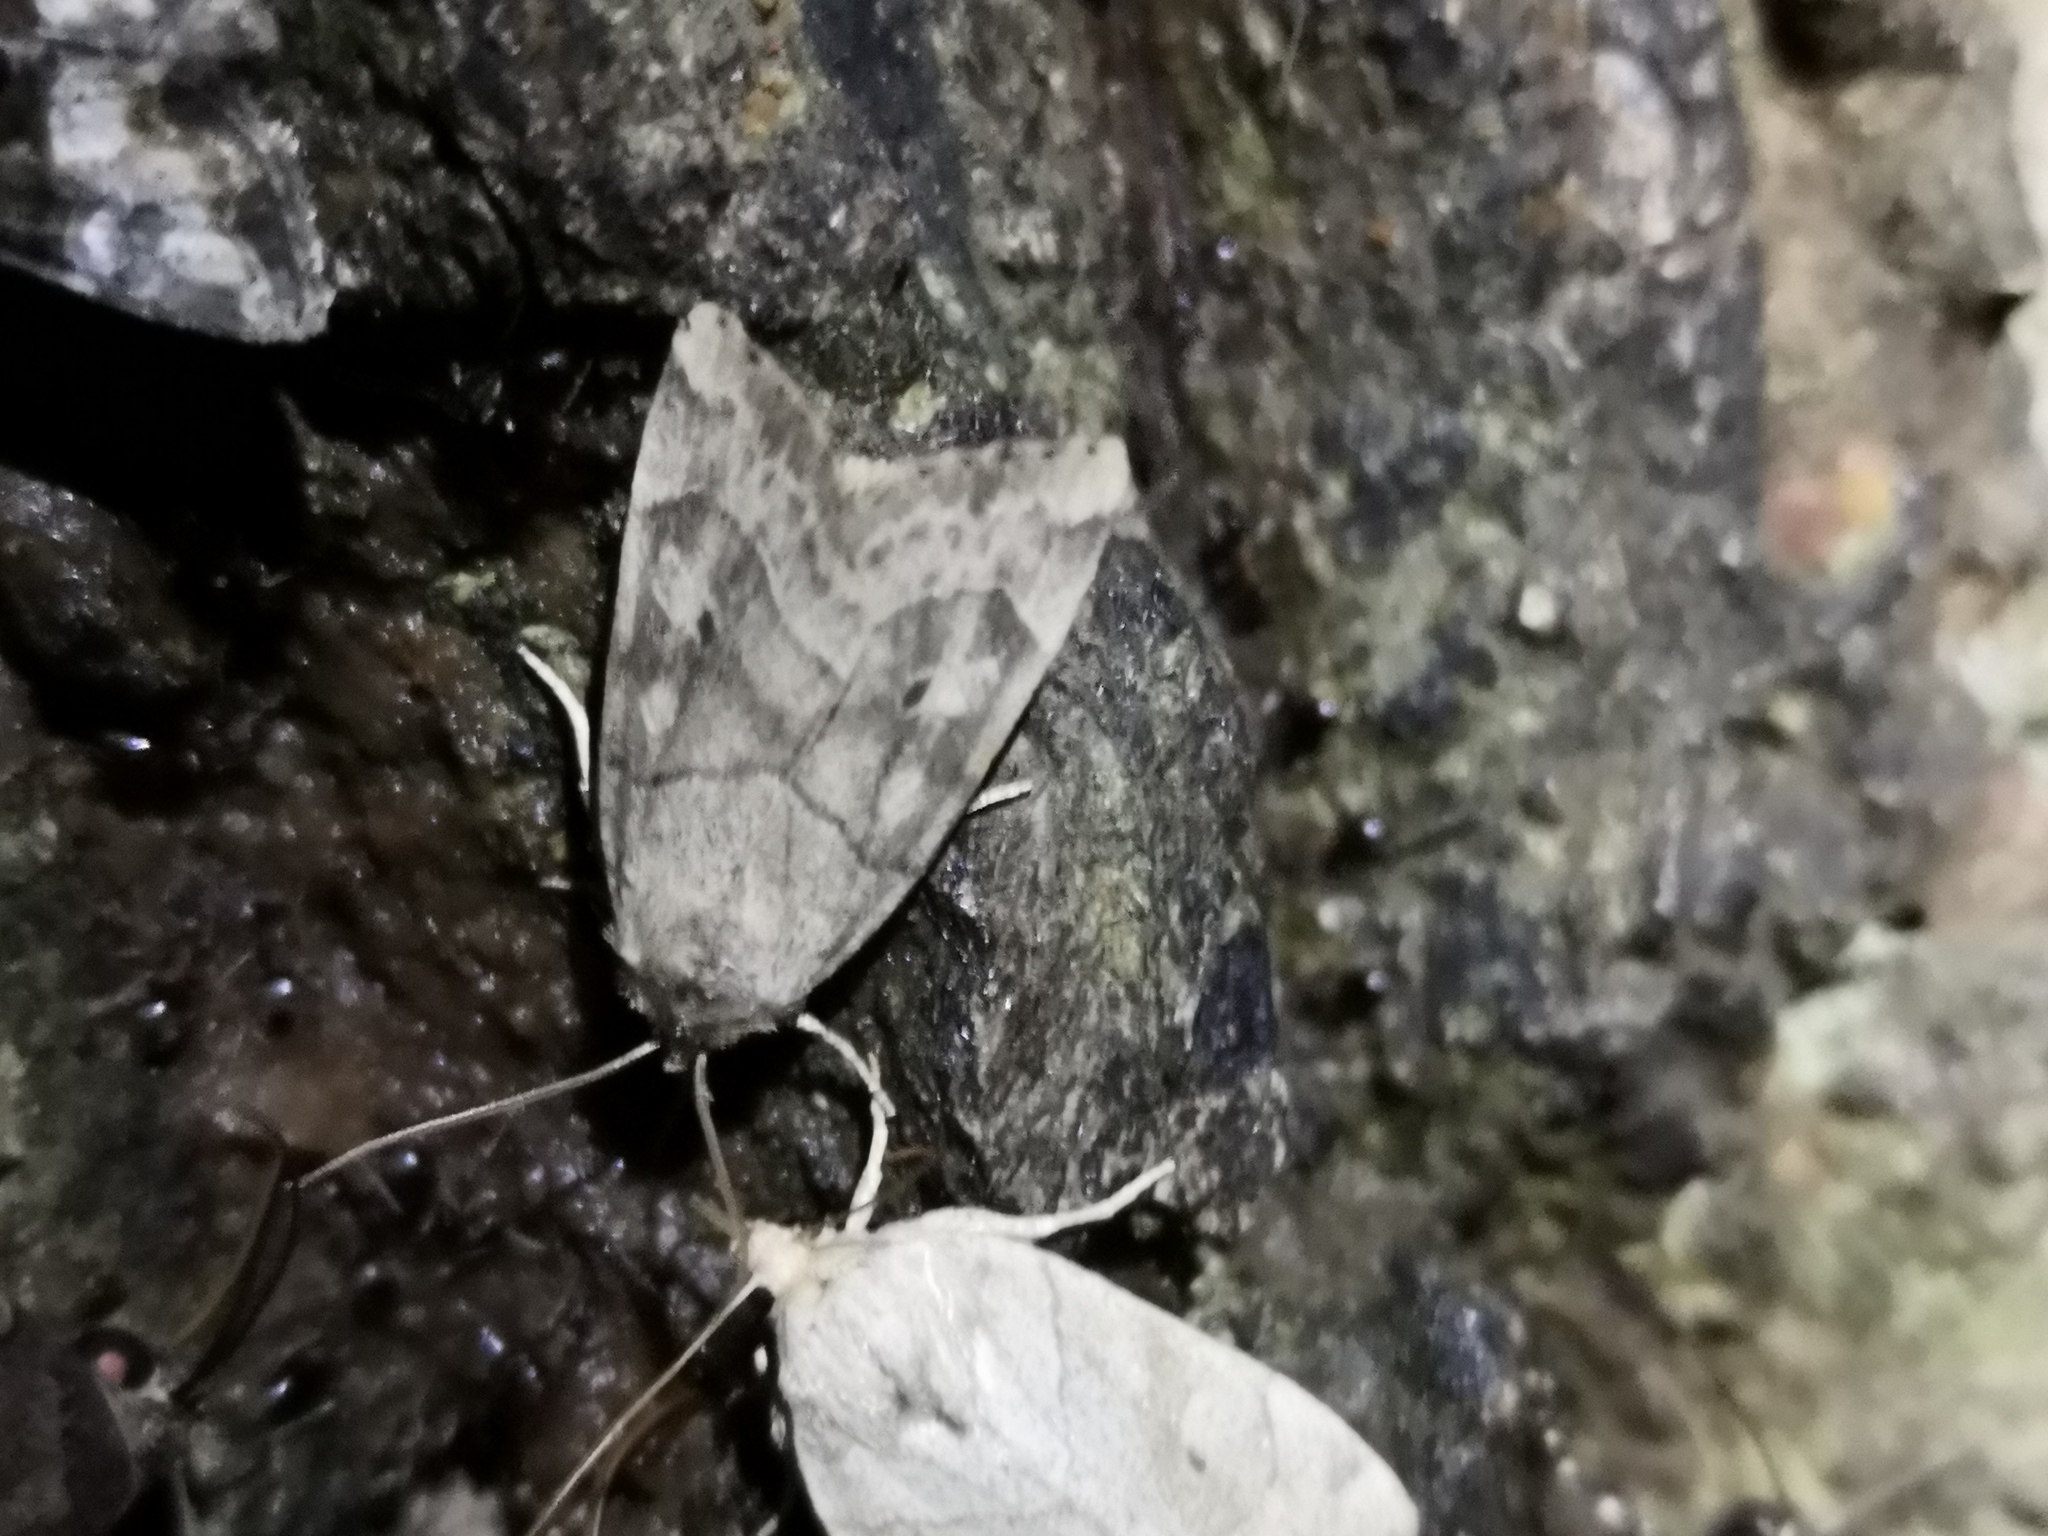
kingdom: Animalia
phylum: Arthropoda
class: Insecta
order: Lepidoptera
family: Noctuidae
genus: Cosmia
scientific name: Cosmia trapezina
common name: Dun-bar
